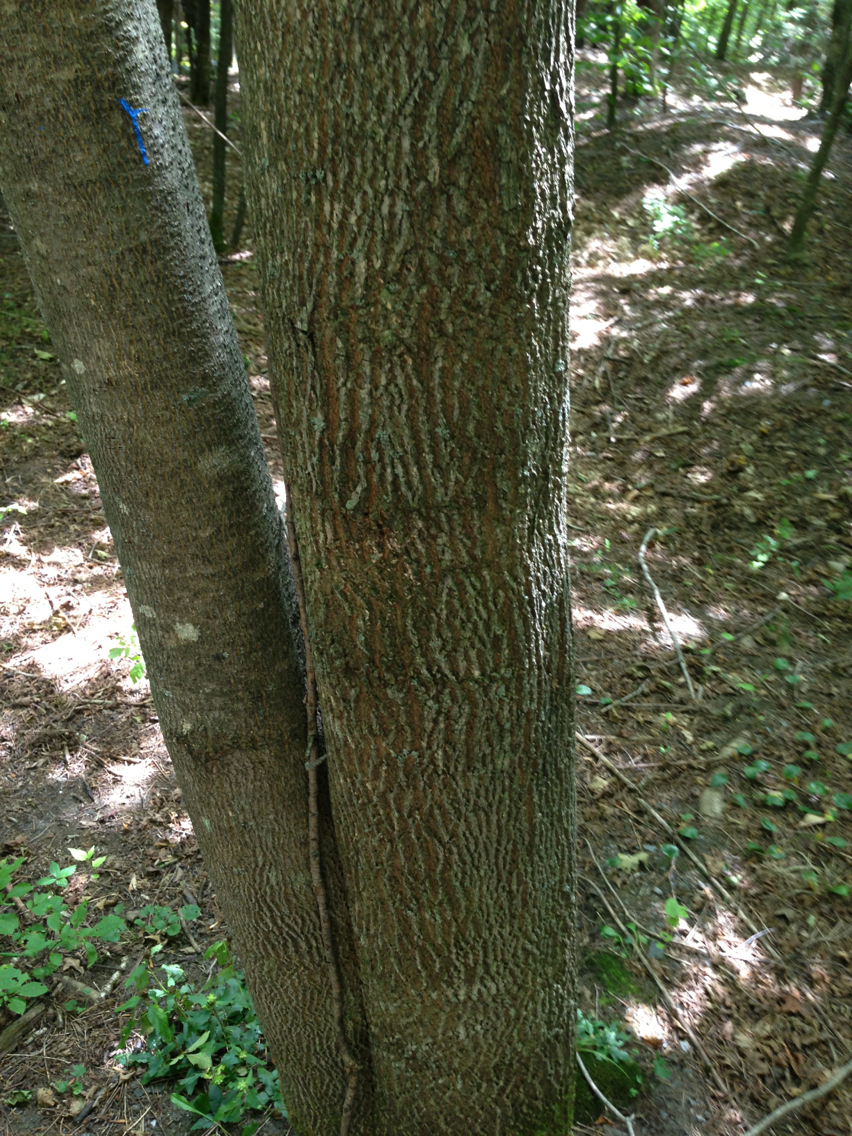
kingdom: Plantae
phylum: Tracheophyta
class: Magnoliopsida
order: Lamiales
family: Oleaceae
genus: Fraxinus
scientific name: Fraxinus americana
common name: White ash
